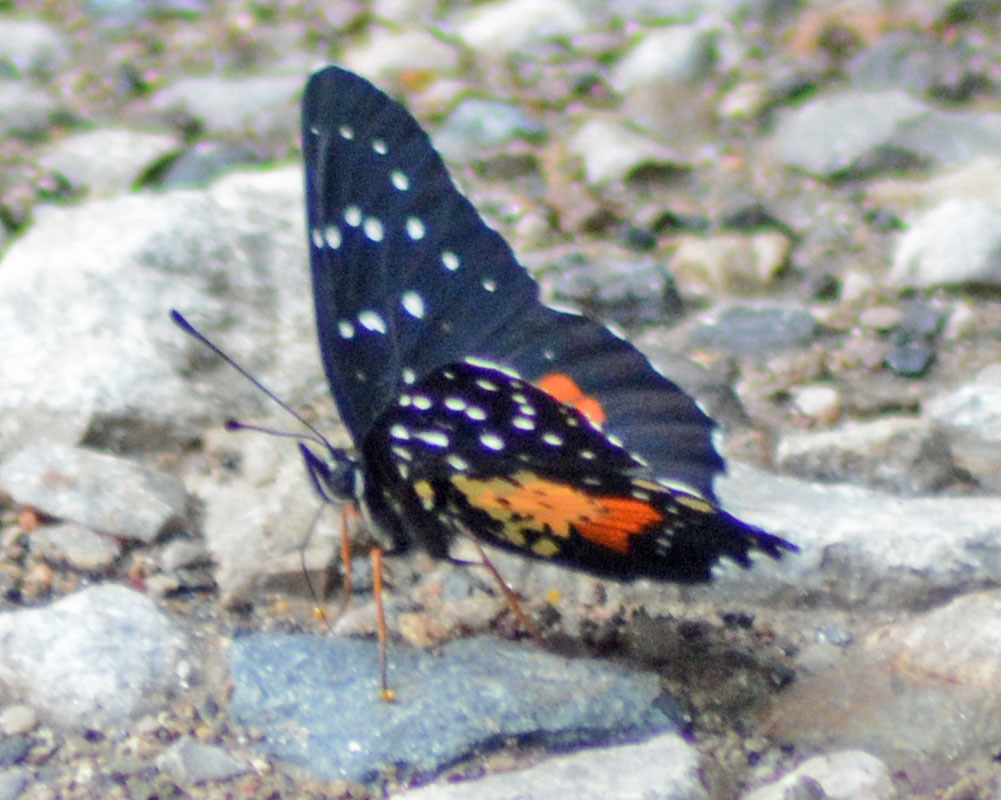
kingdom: Animalia
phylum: Arthropoda
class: Insecta
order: Lepidoptera
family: Nymphalidae
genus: Chlosyne
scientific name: Chlosyne janais
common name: Crimson patch
